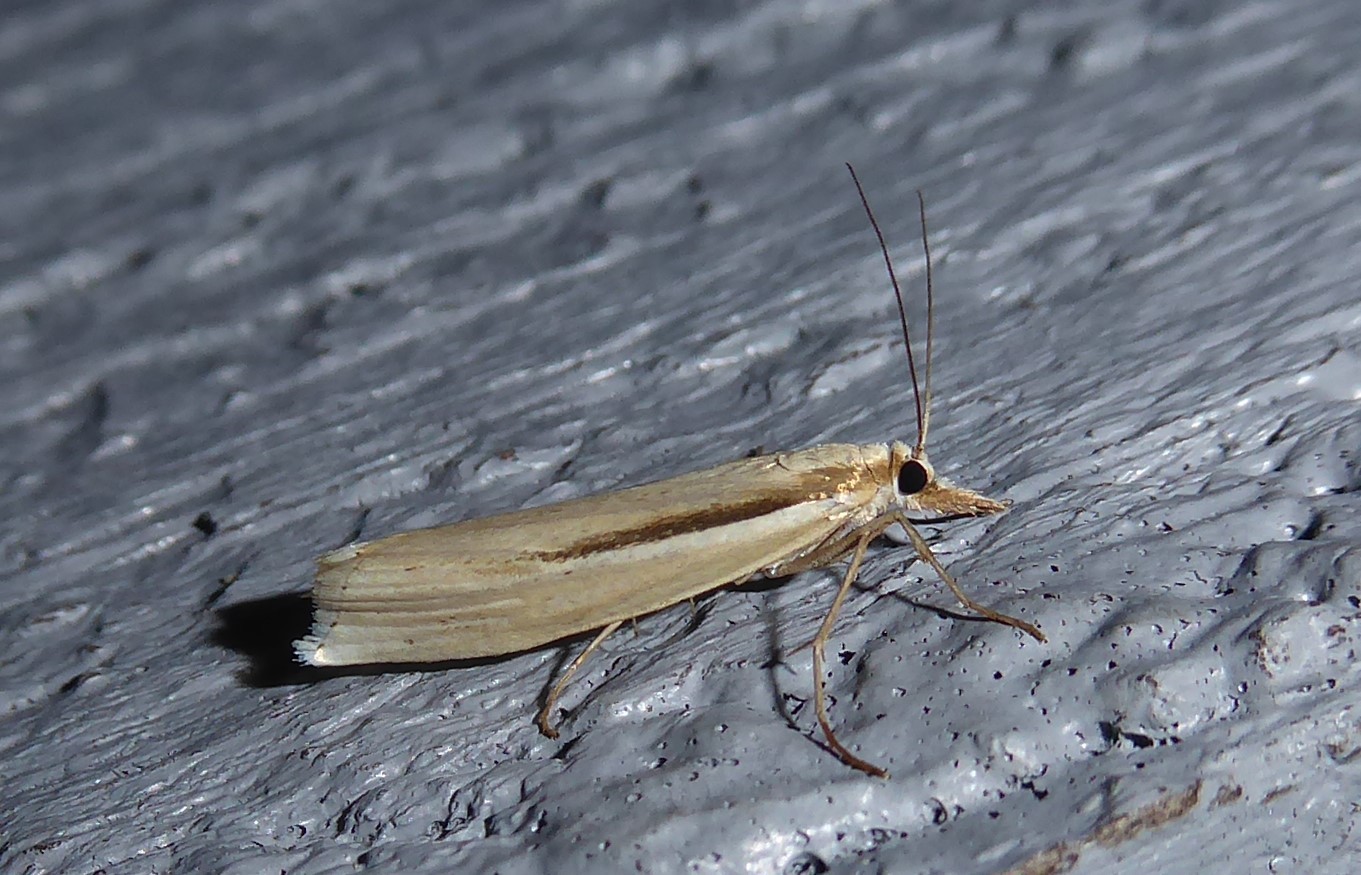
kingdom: Animalia
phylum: Arthropoda
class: Insecta
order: Lepidoptera
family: Crambidae
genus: Orocrambus
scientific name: Orocrambus ramosellus
